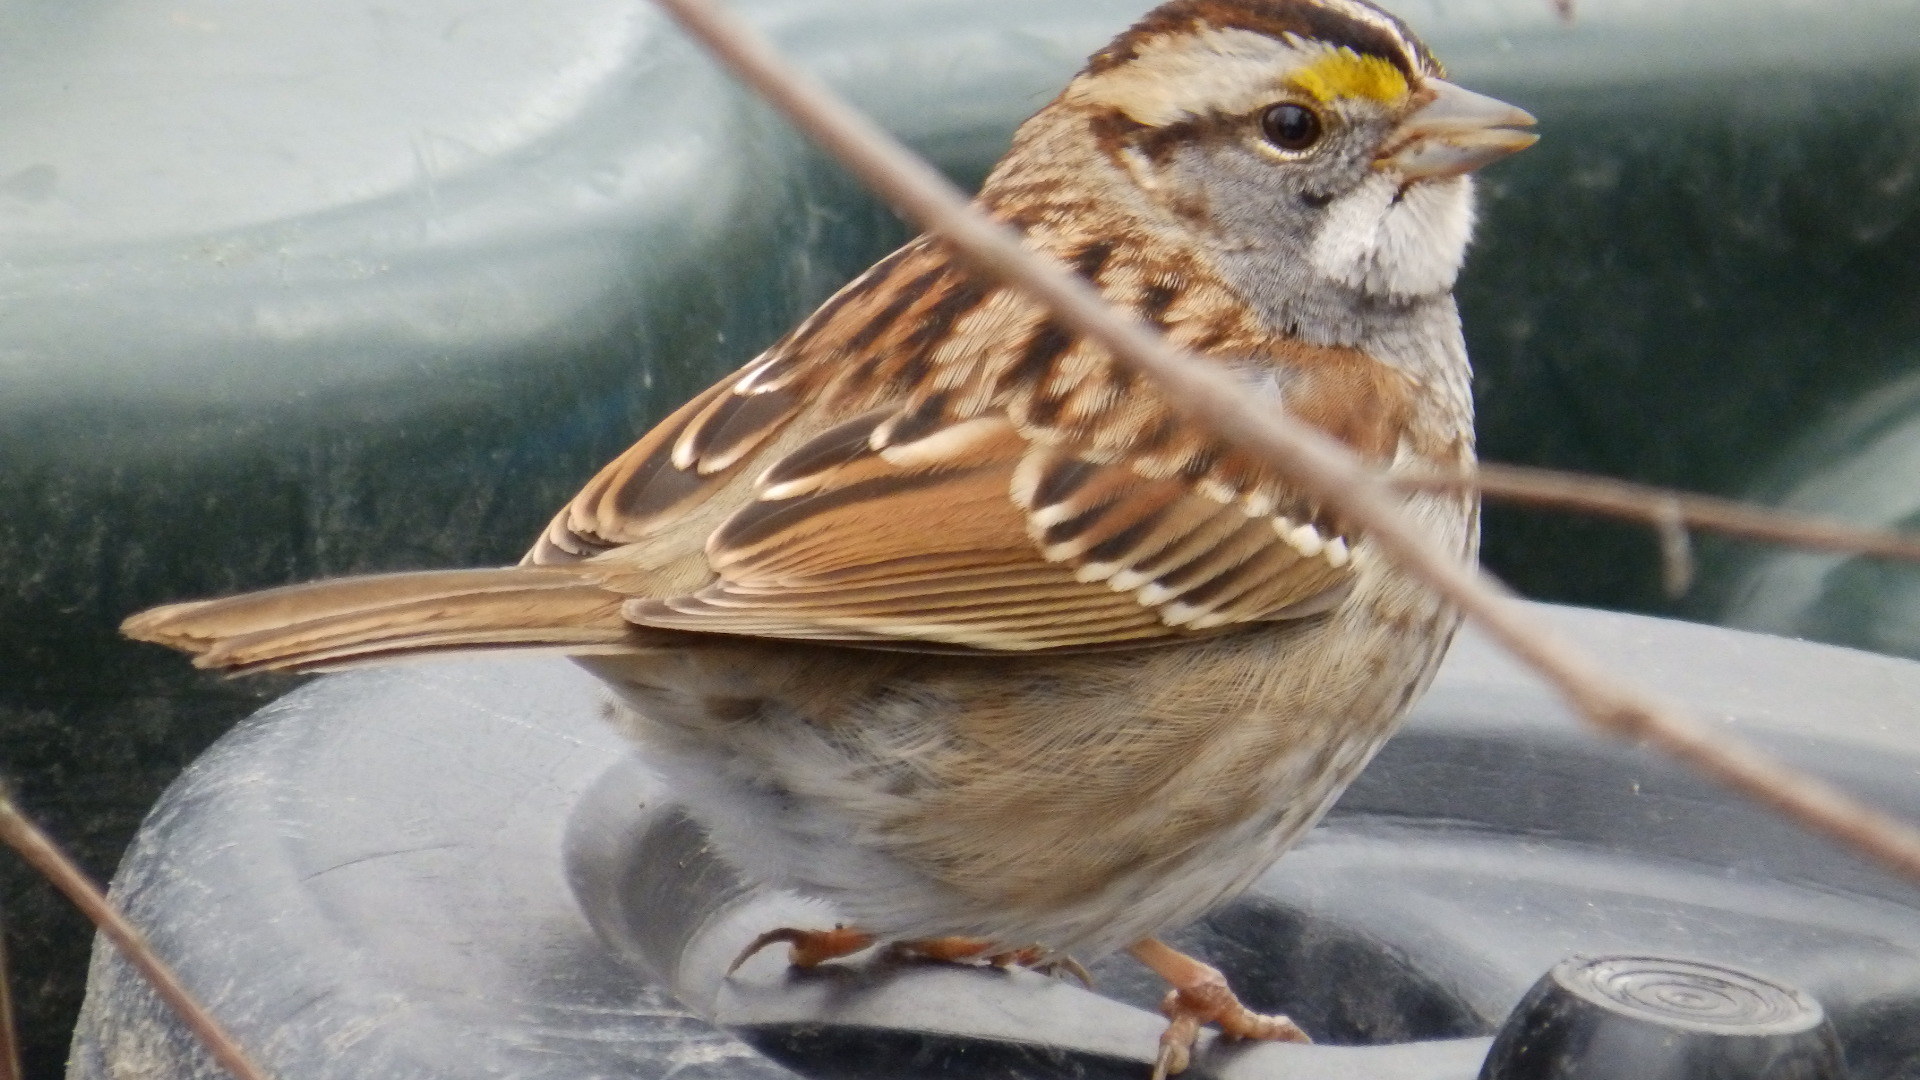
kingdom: Animalia
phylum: Chordata
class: Aves
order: Passeriformes
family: Passerellidae
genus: Zonotrichia
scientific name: Zonotrichia albicollis
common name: White-throated sparrow
